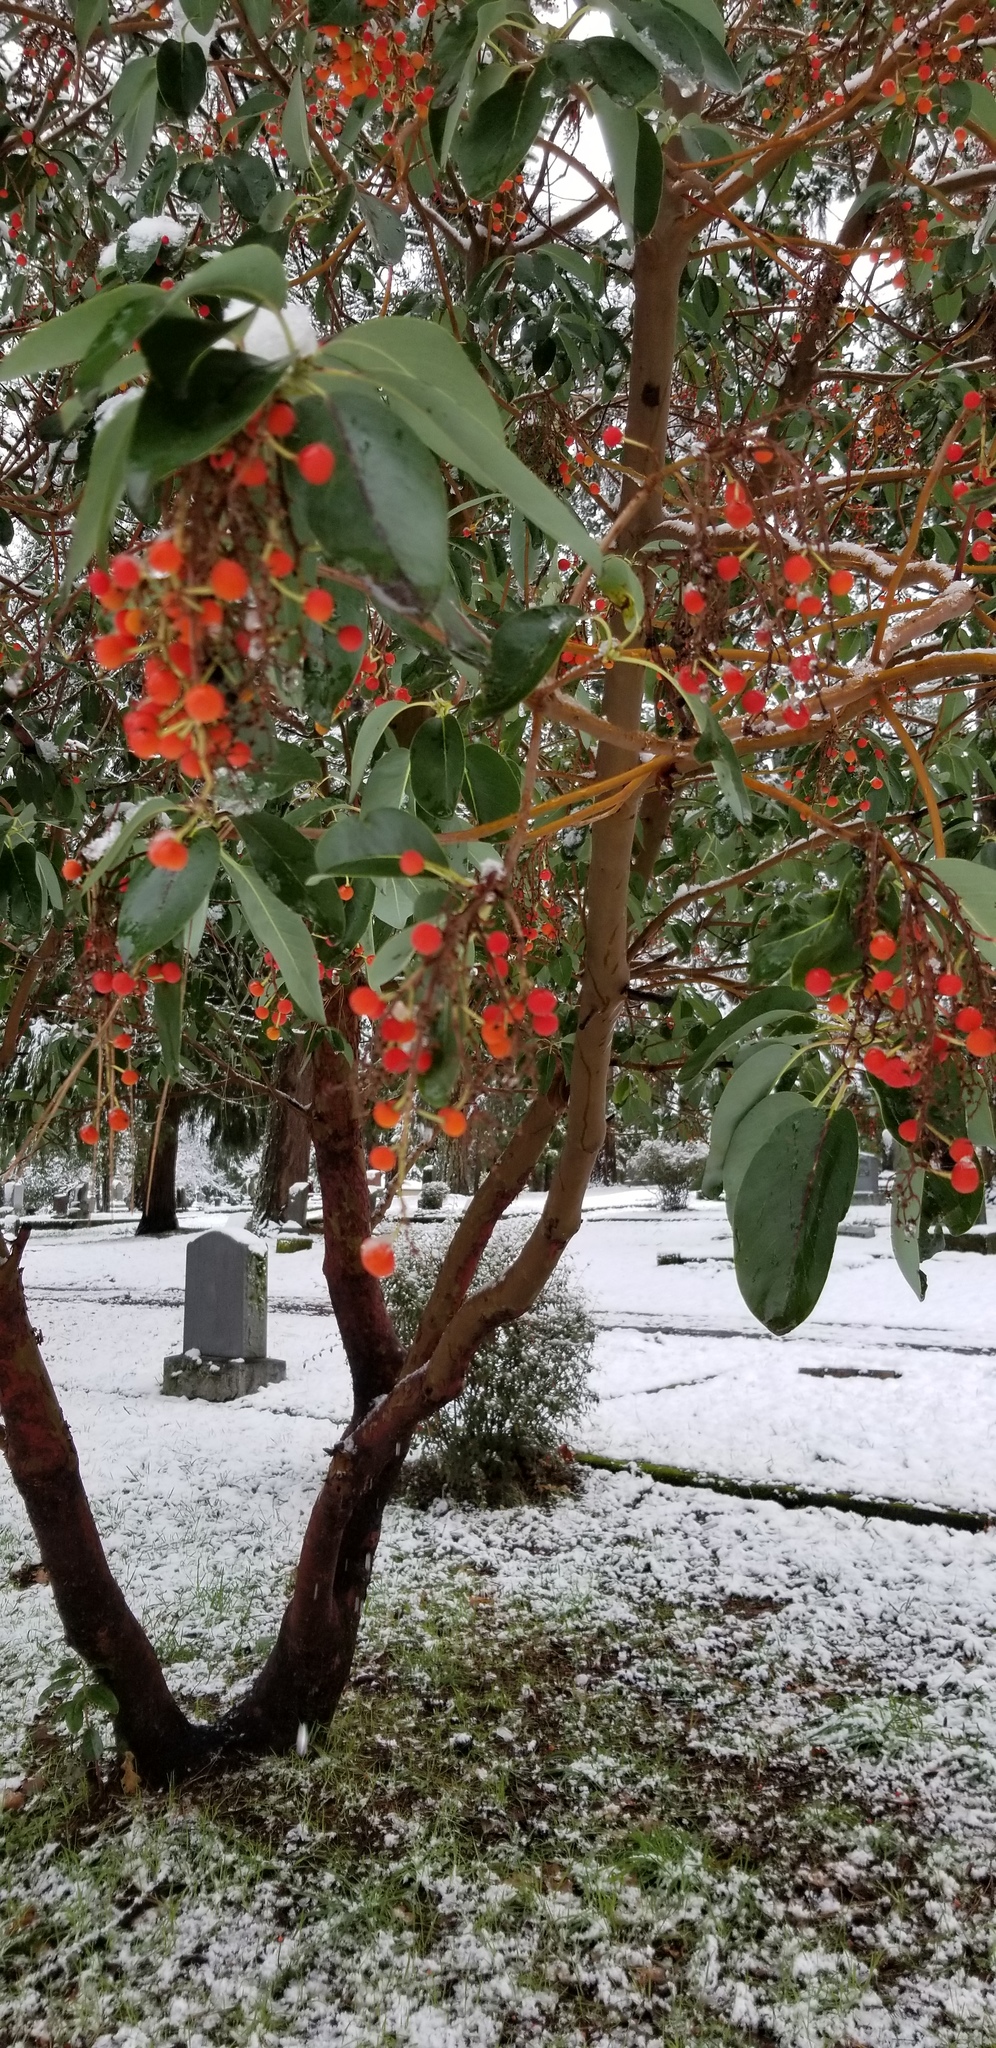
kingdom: Plantae
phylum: Tracheophyta
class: Magnoliopsida
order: Ericales
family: Ericaceae
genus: Arbutus
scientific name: Arbutus menziesii
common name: Pacific madrone
